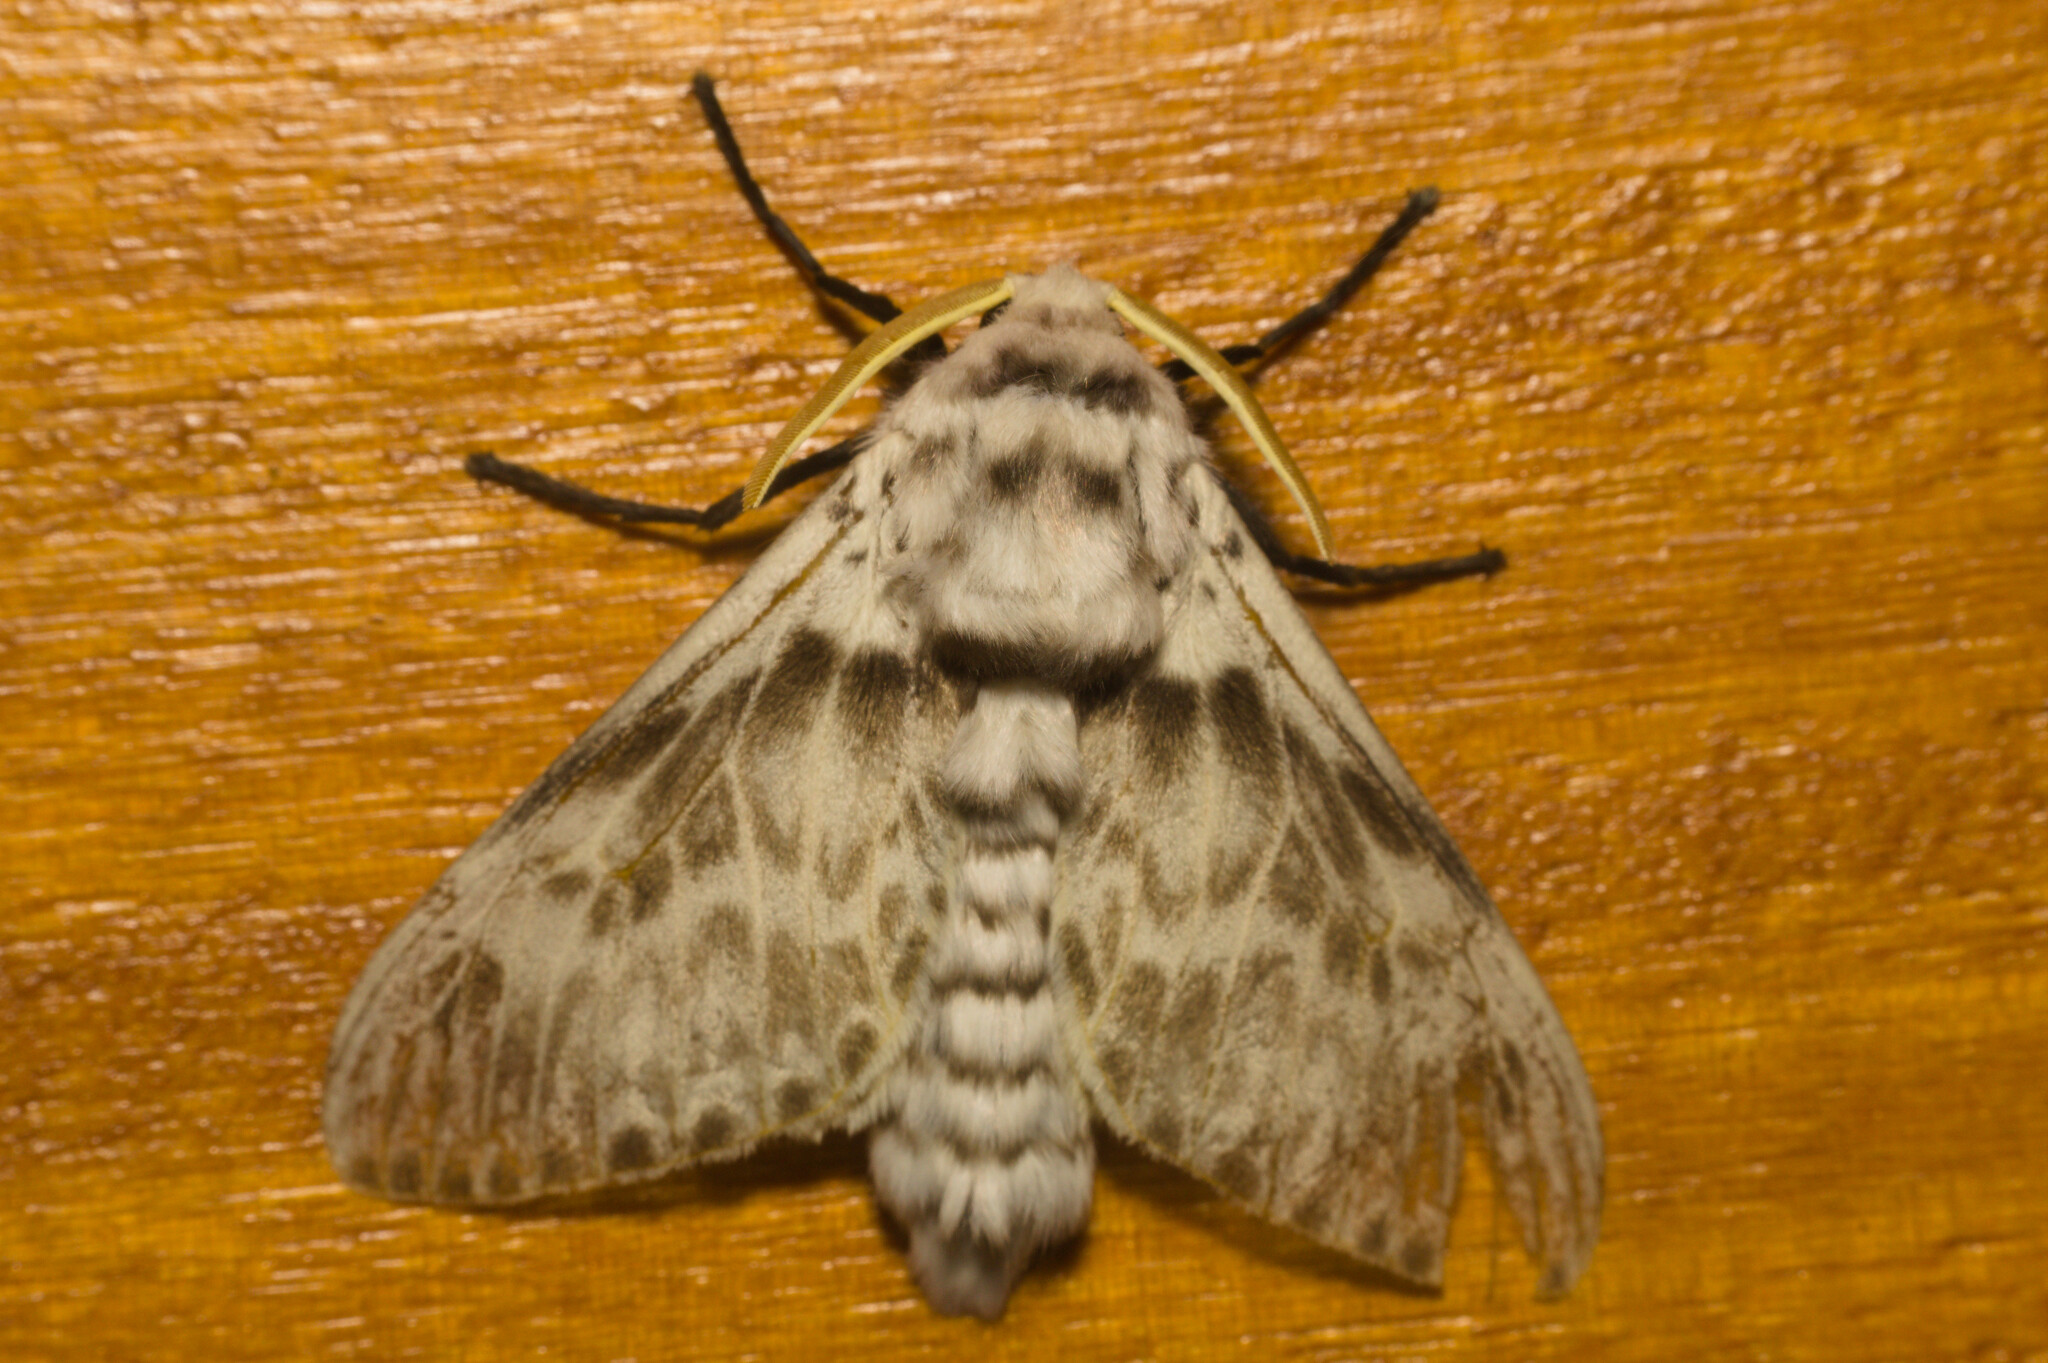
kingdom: Animalia
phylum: Arthropoda
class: Insecta
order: Lepidoptera
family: Megalopygidae
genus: Podalia
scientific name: Podalia albescens
